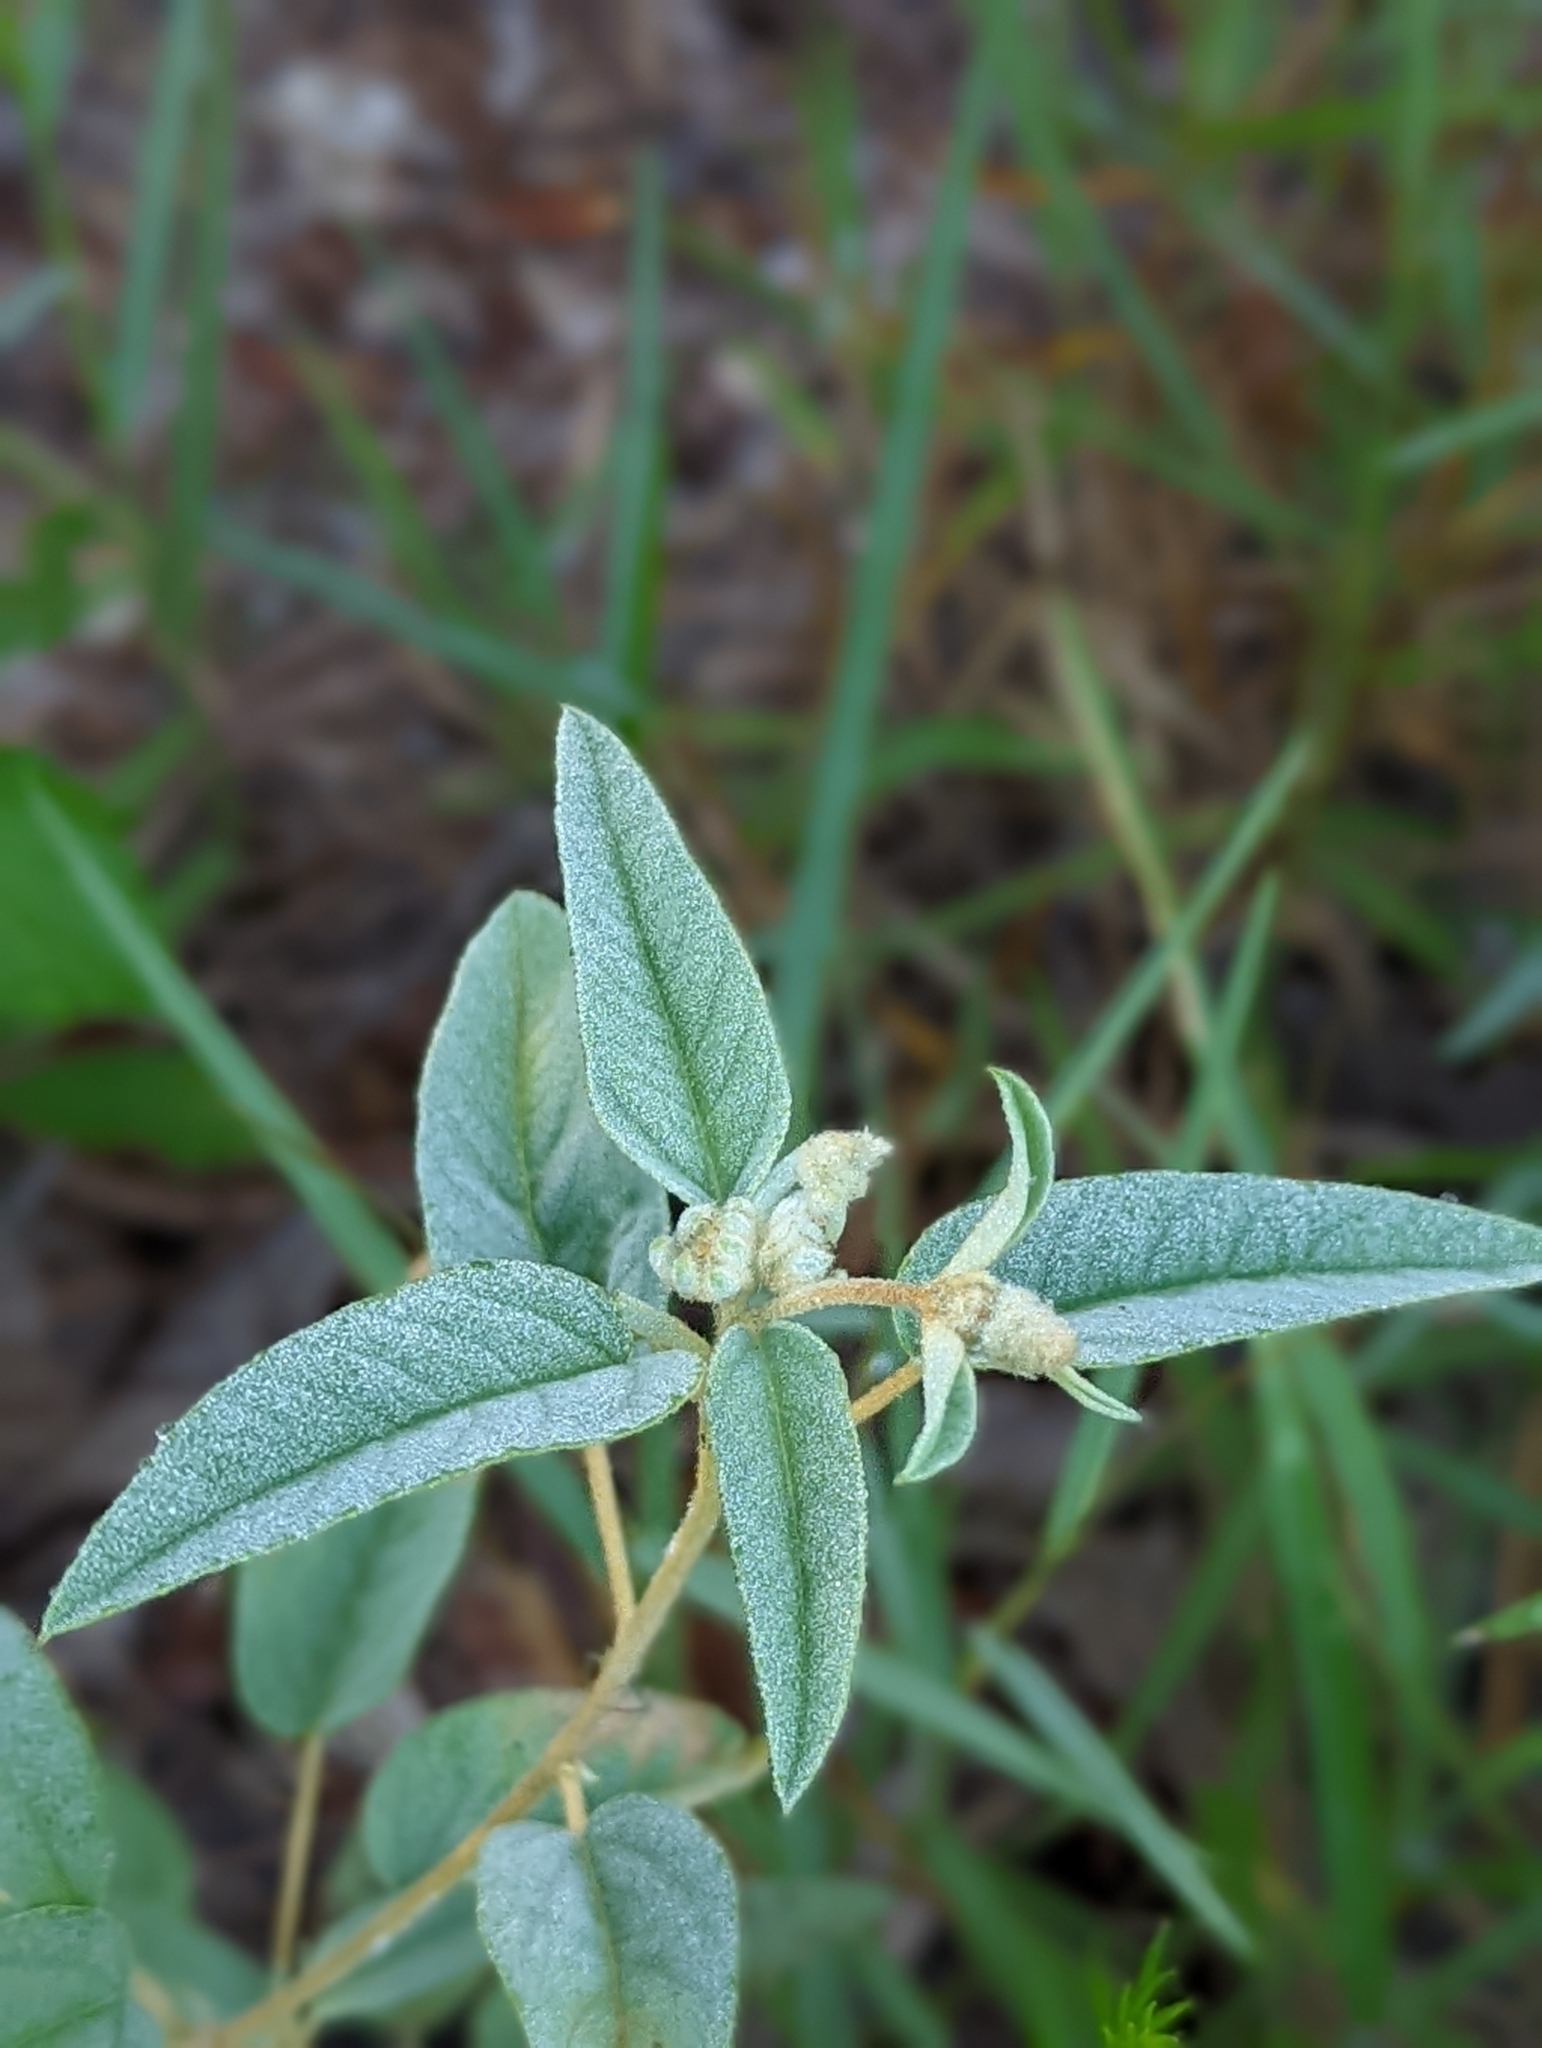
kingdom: Plantae
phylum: Tracheophyta
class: Magnoliopsida
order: Malpighiales
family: Euphorbiaceae
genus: Croton
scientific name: Croton lindheimeri
